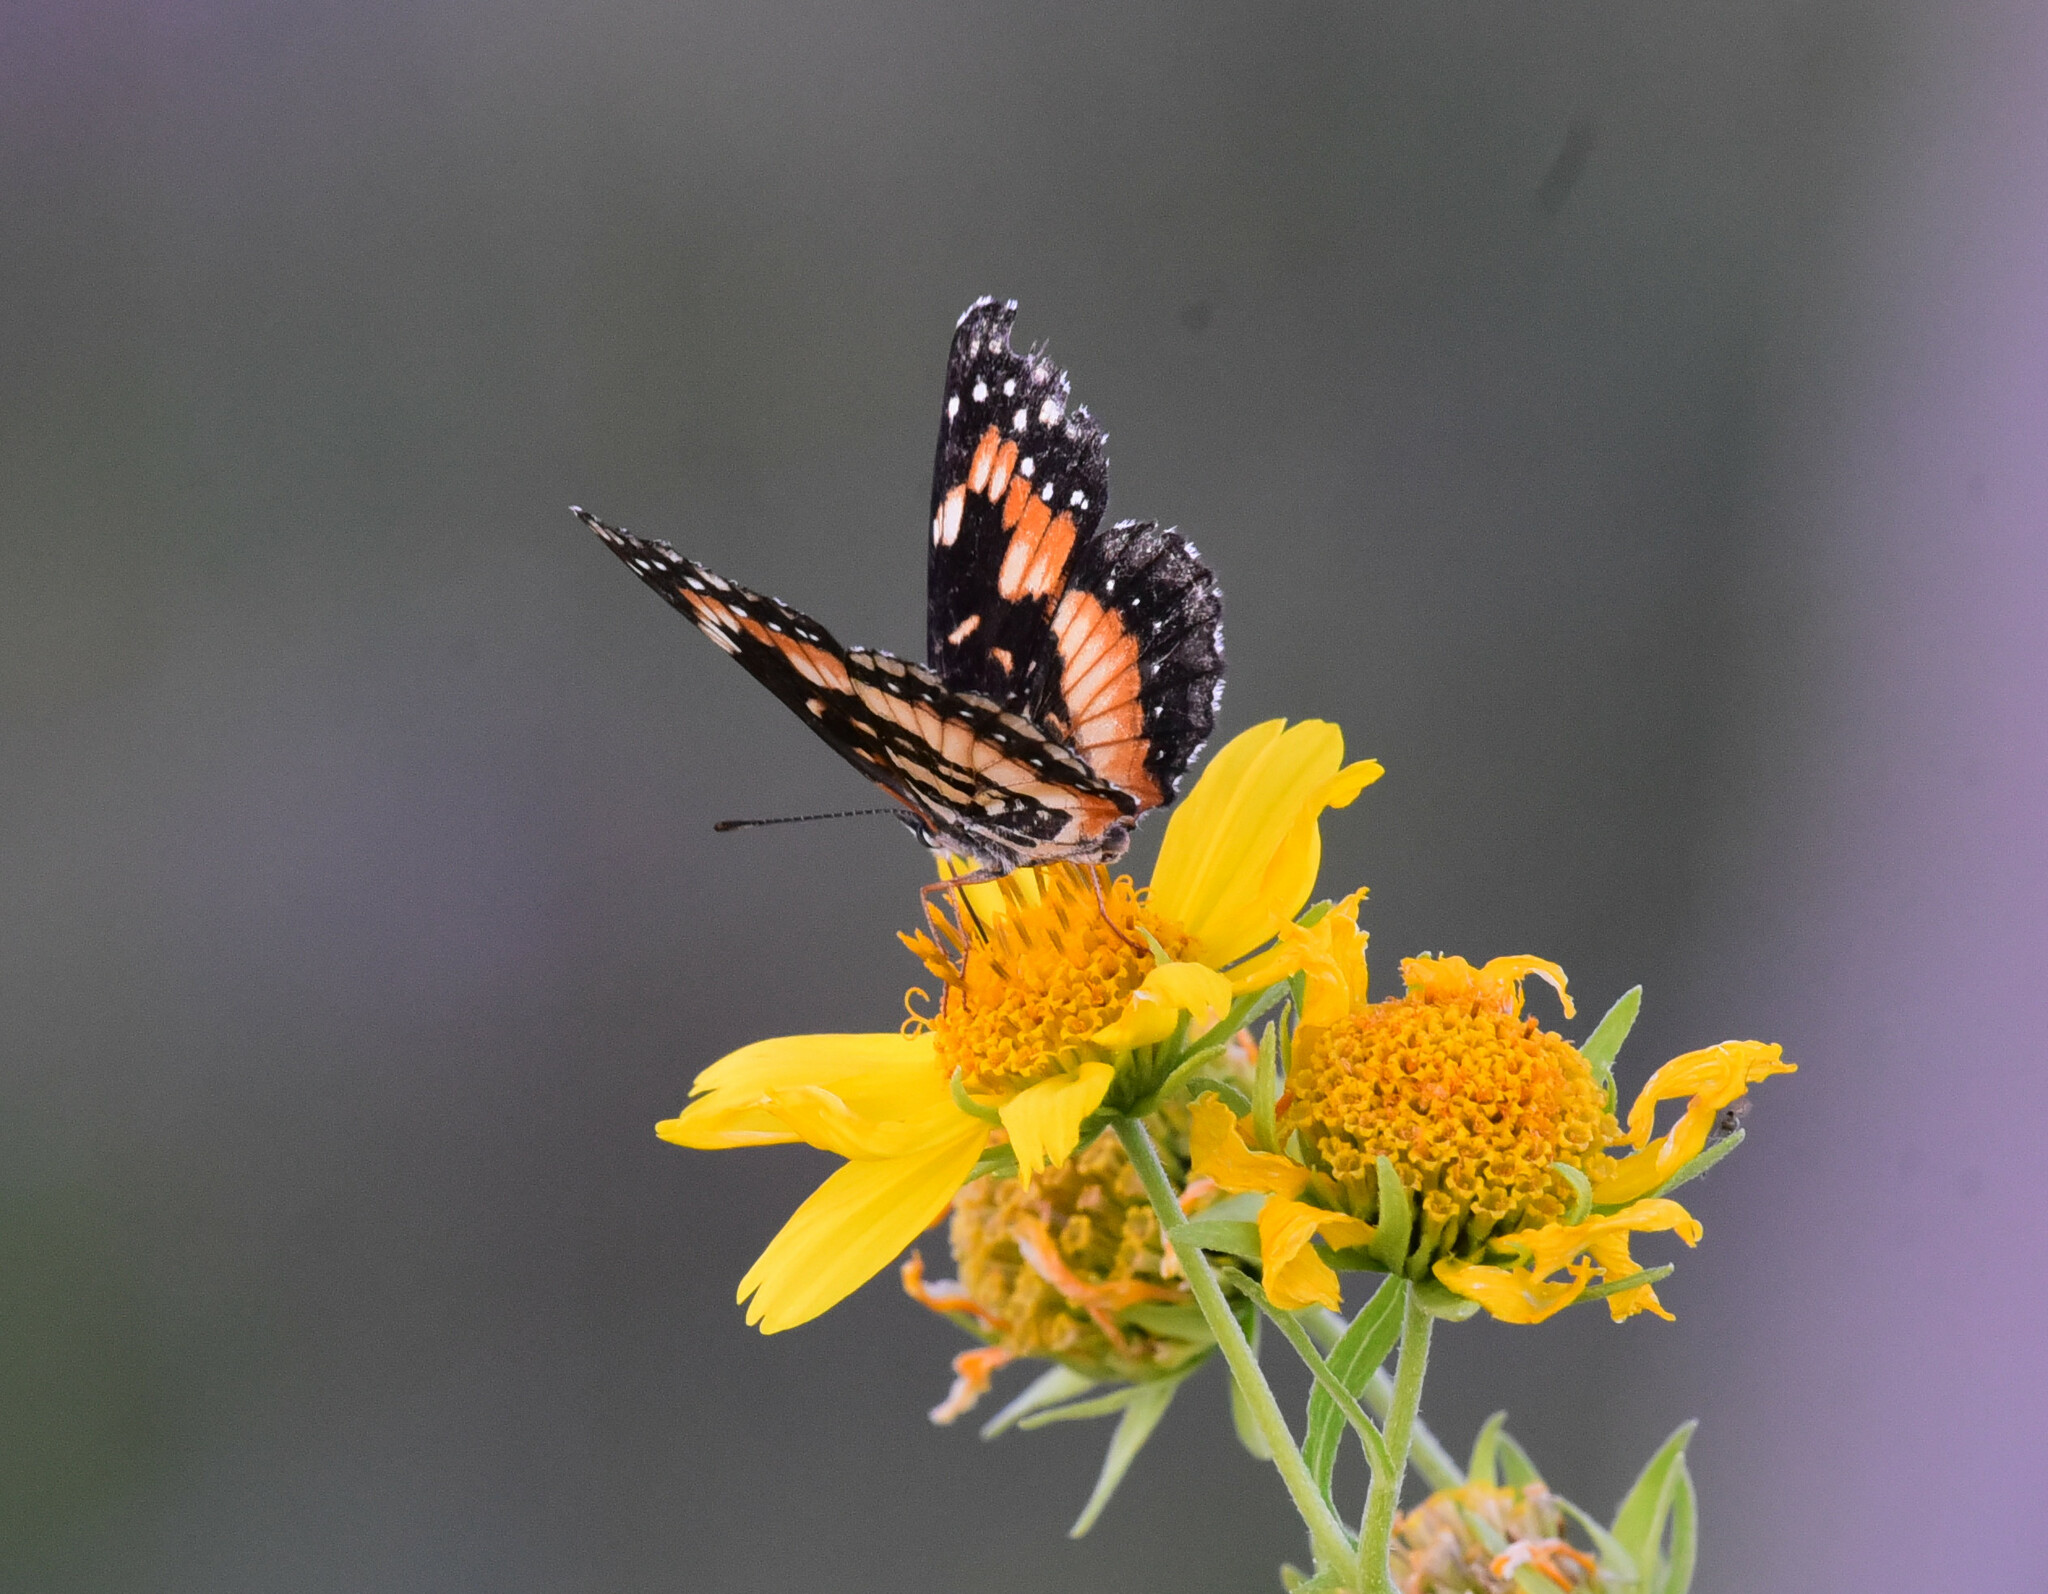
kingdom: Animalia
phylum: Arthropoda
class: Insecta
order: Lepidoptera
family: Nymphalidae
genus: Chlosyne
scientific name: Chlosyne lacinia
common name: Bordered patch
